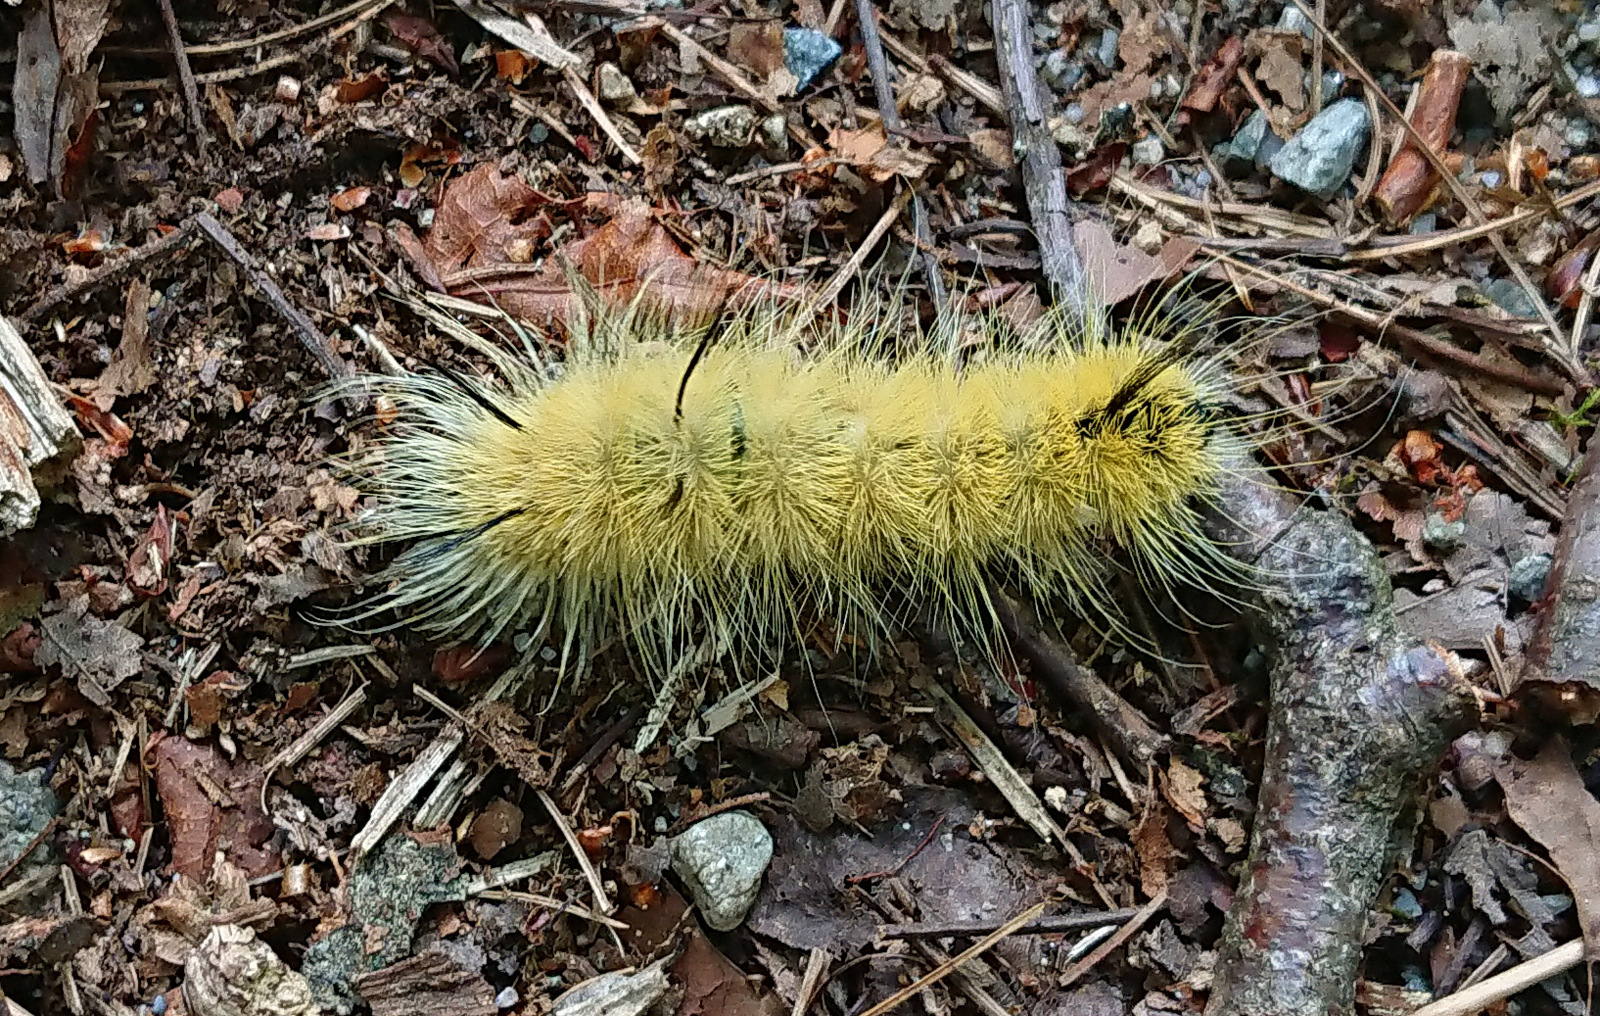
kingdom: Animalia
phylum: Arthropoda
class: Insecta
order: Lepidoptera
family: Noctuidae
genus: Acronicta
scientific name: Acronicta americana
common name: American dagger
